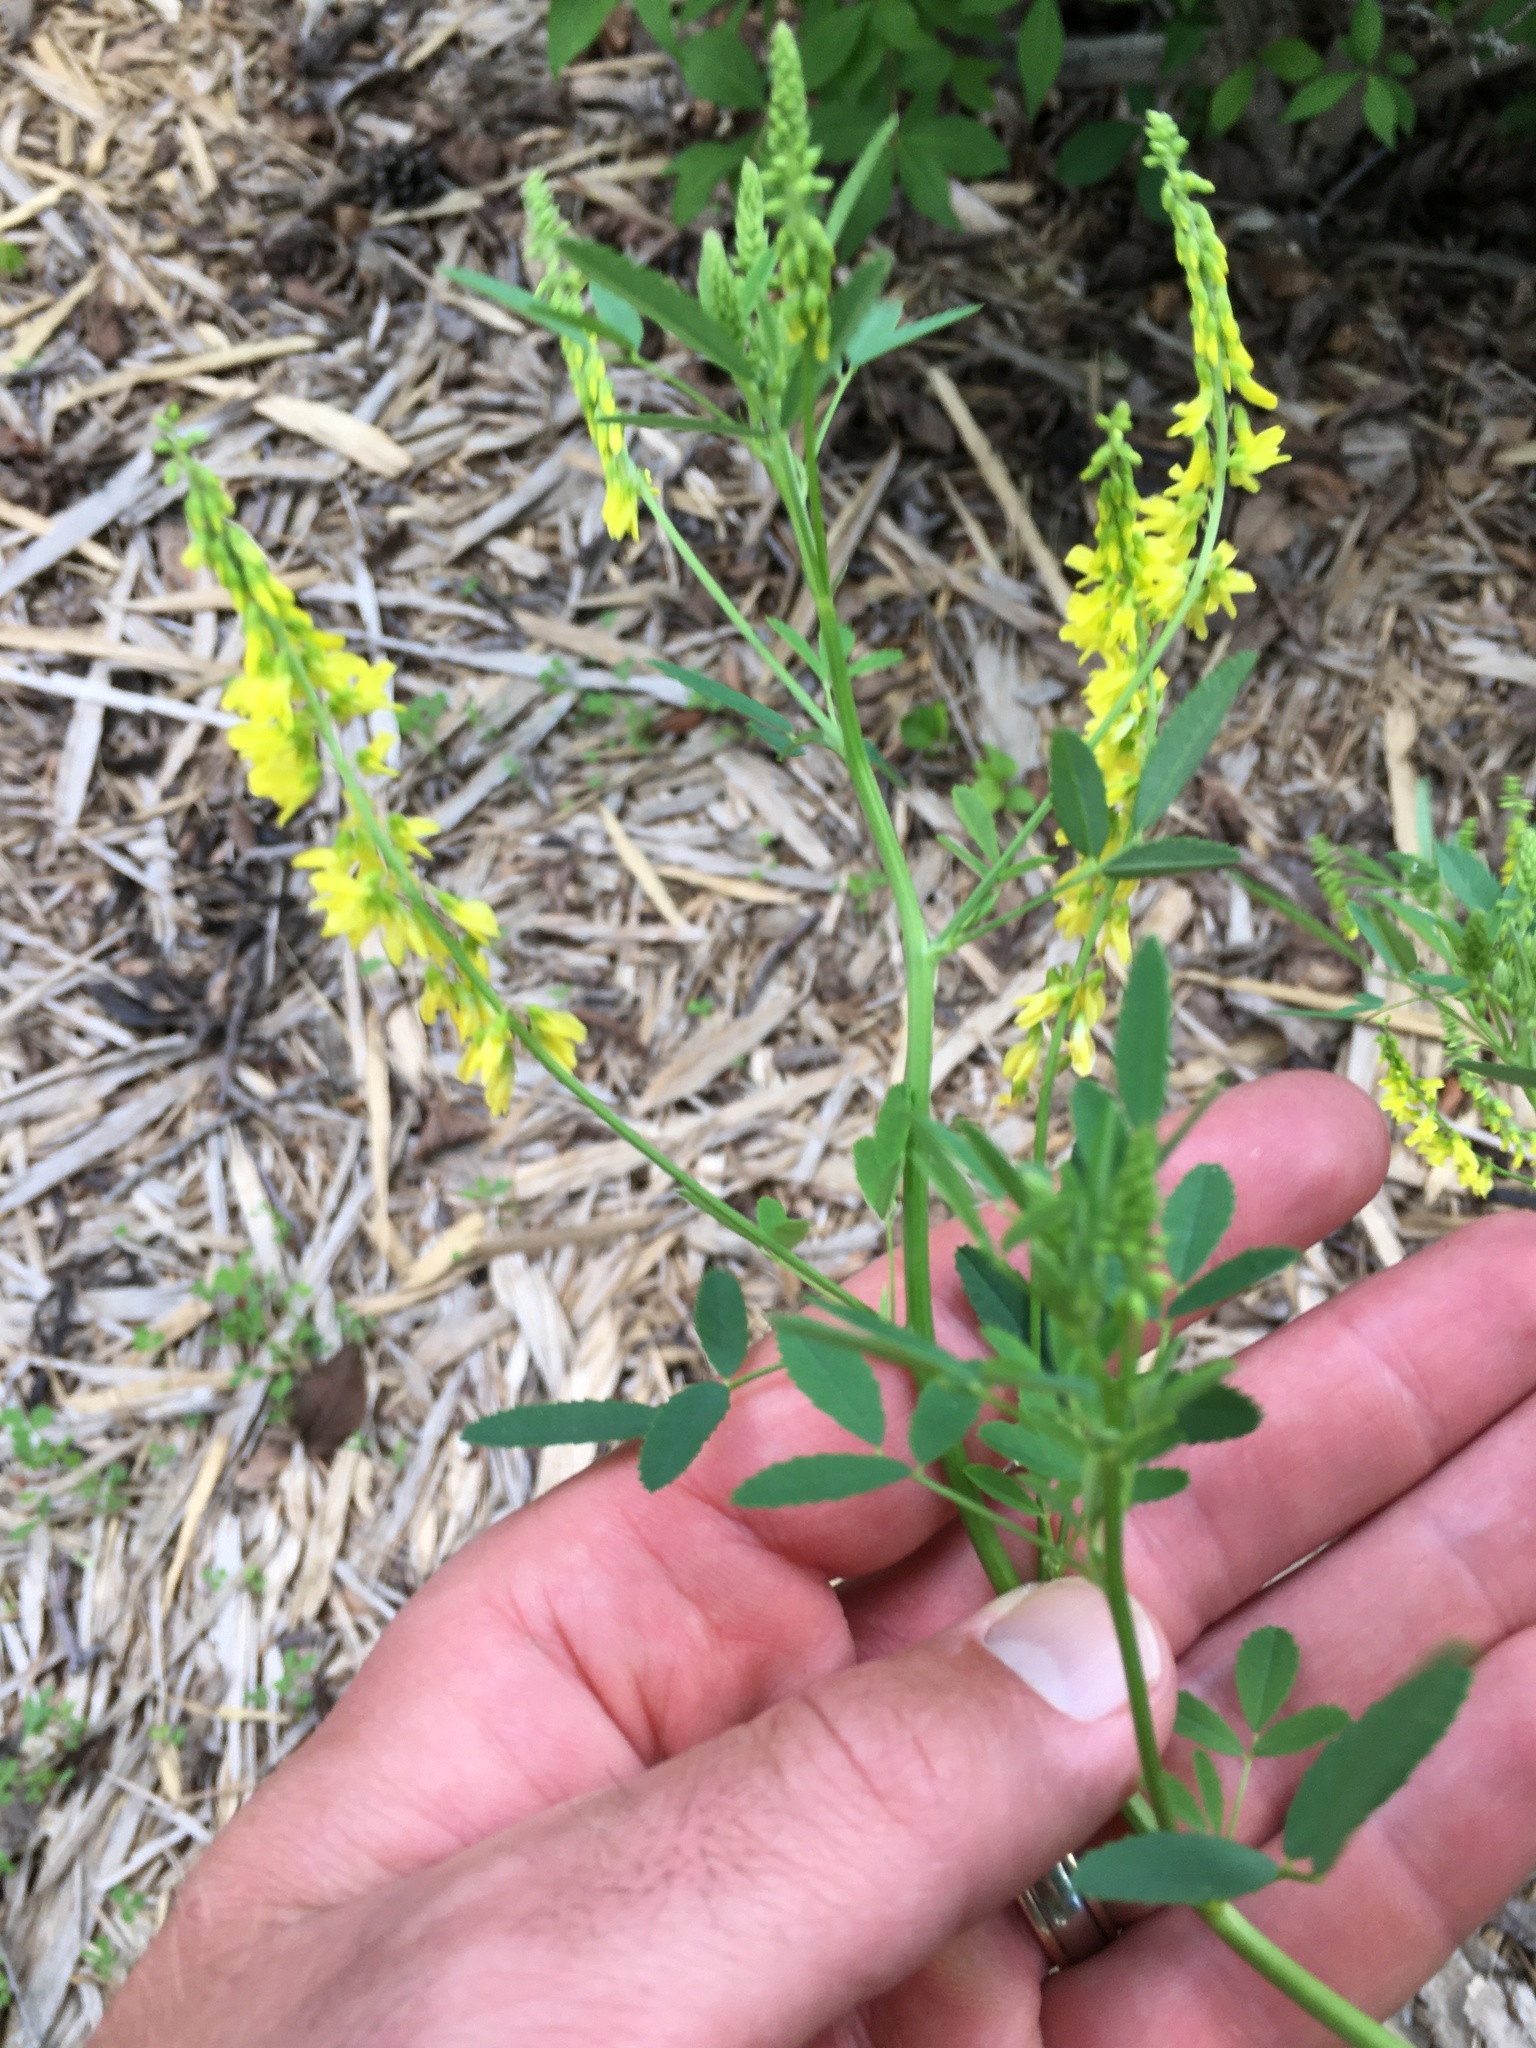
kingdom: Plantae
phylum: Tracheophyta
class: Magnoliopsida
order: Fabales
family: Fabaceae
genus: Melilotus
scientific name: Melilotus officinalis
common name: Sweetclover
